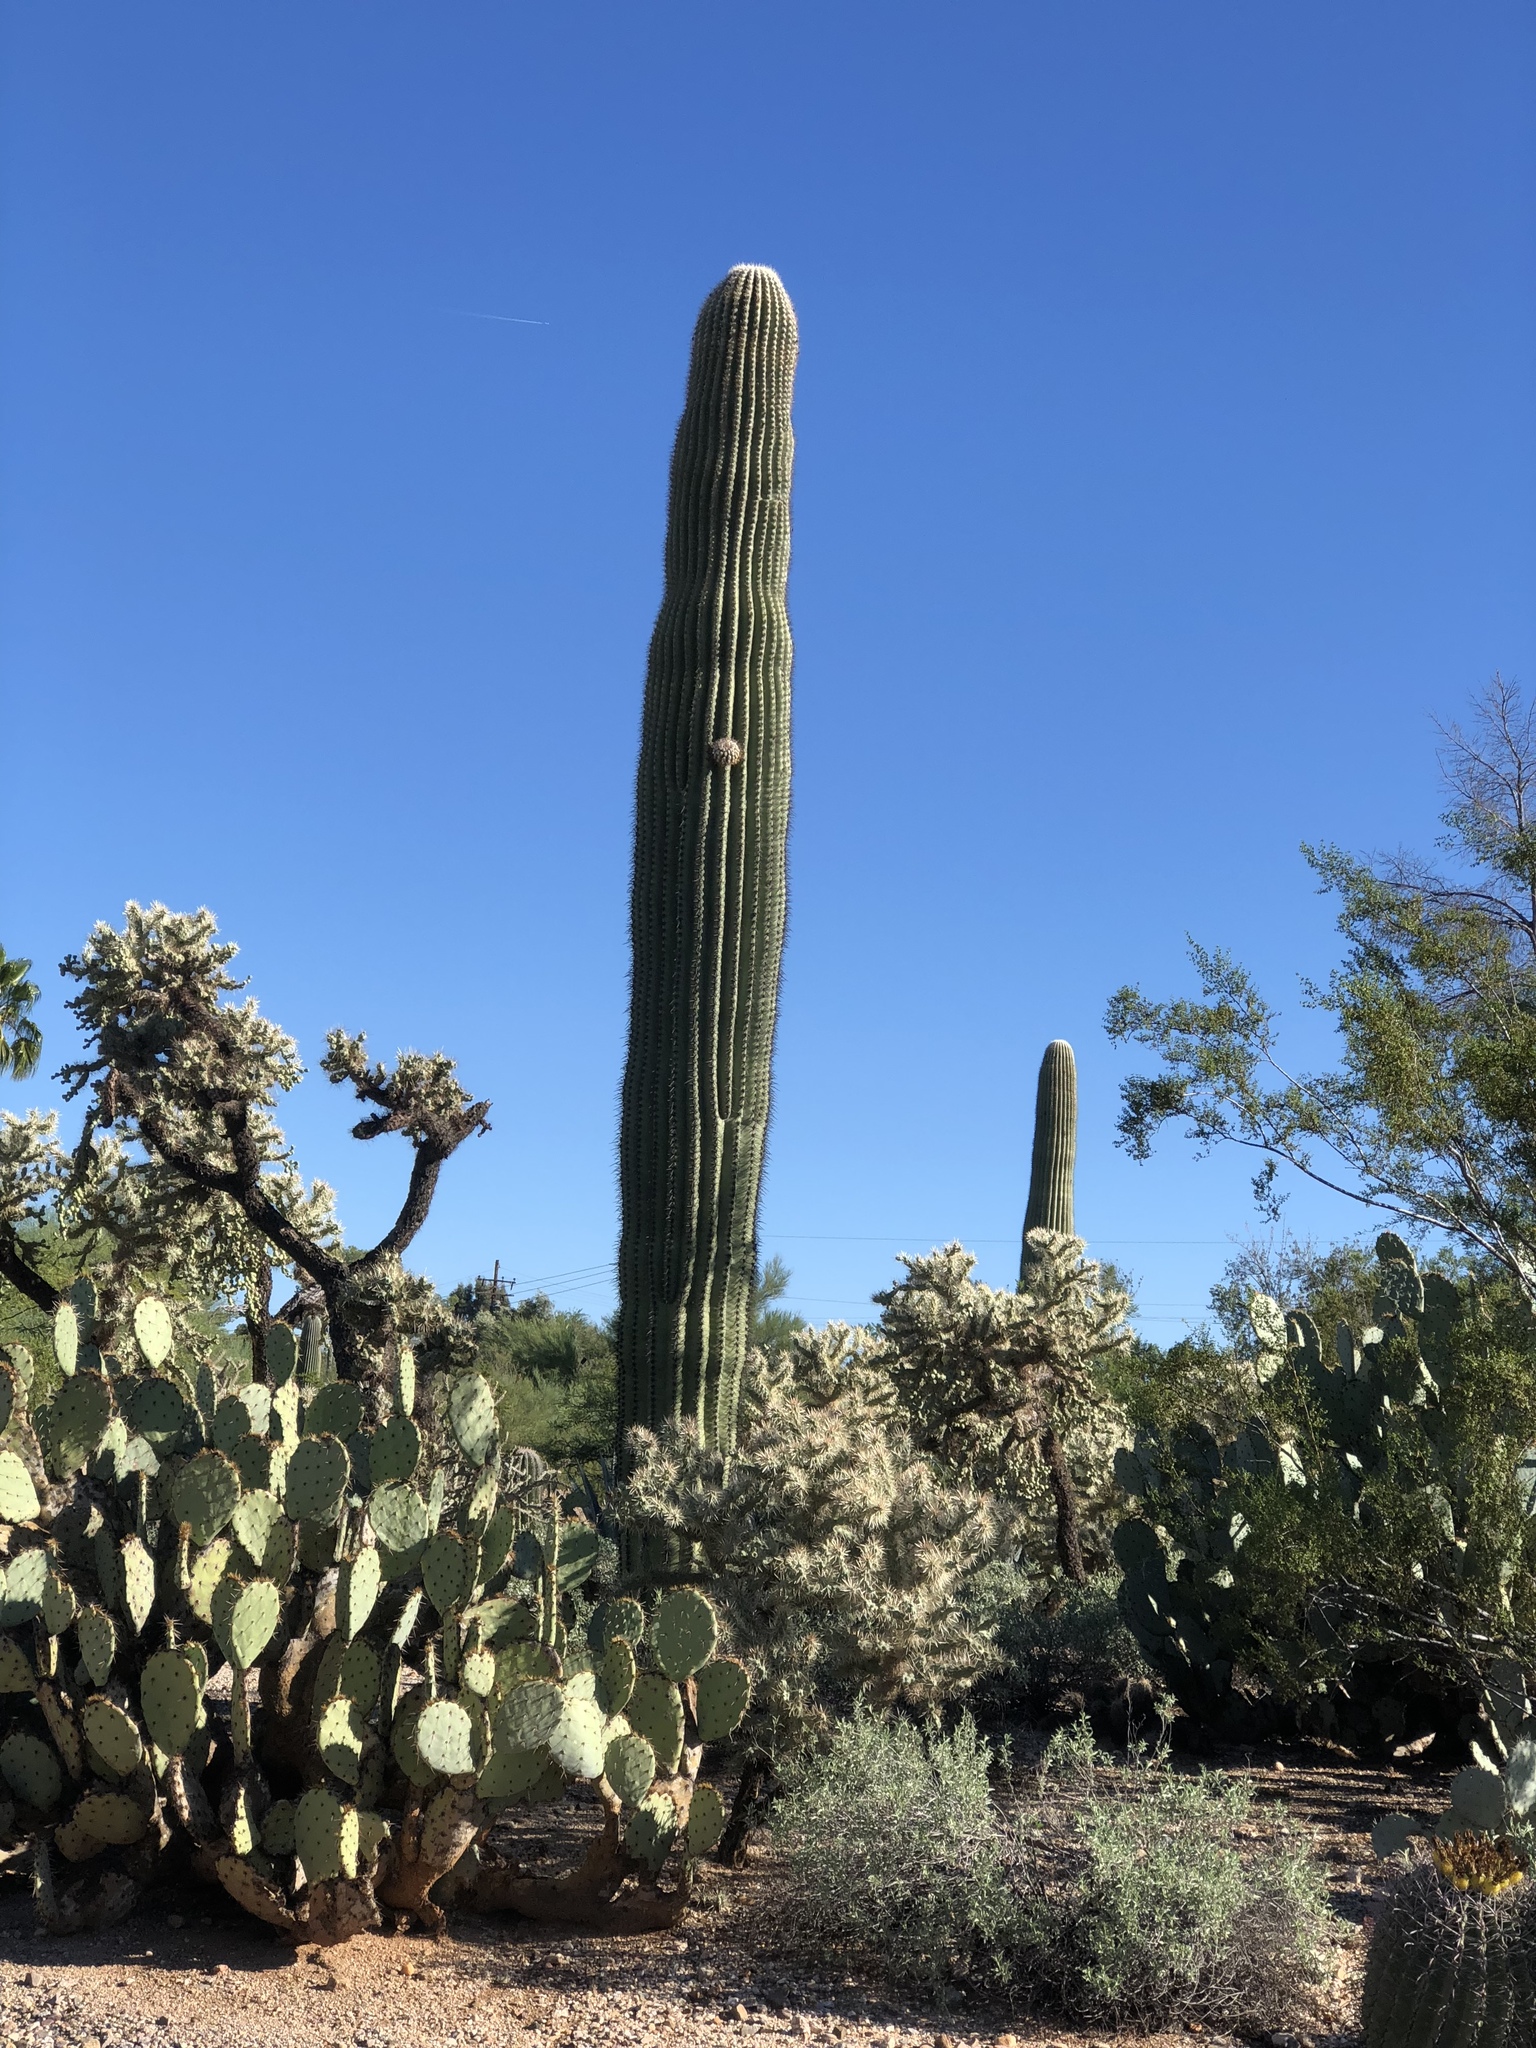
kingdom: Plantae
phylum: Tracheophyta
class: Magnoliopsida
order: Caryophyllales
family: Cactaceae
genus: Carnegiea
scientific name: Carnegiea gigantea
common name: Saguaro
